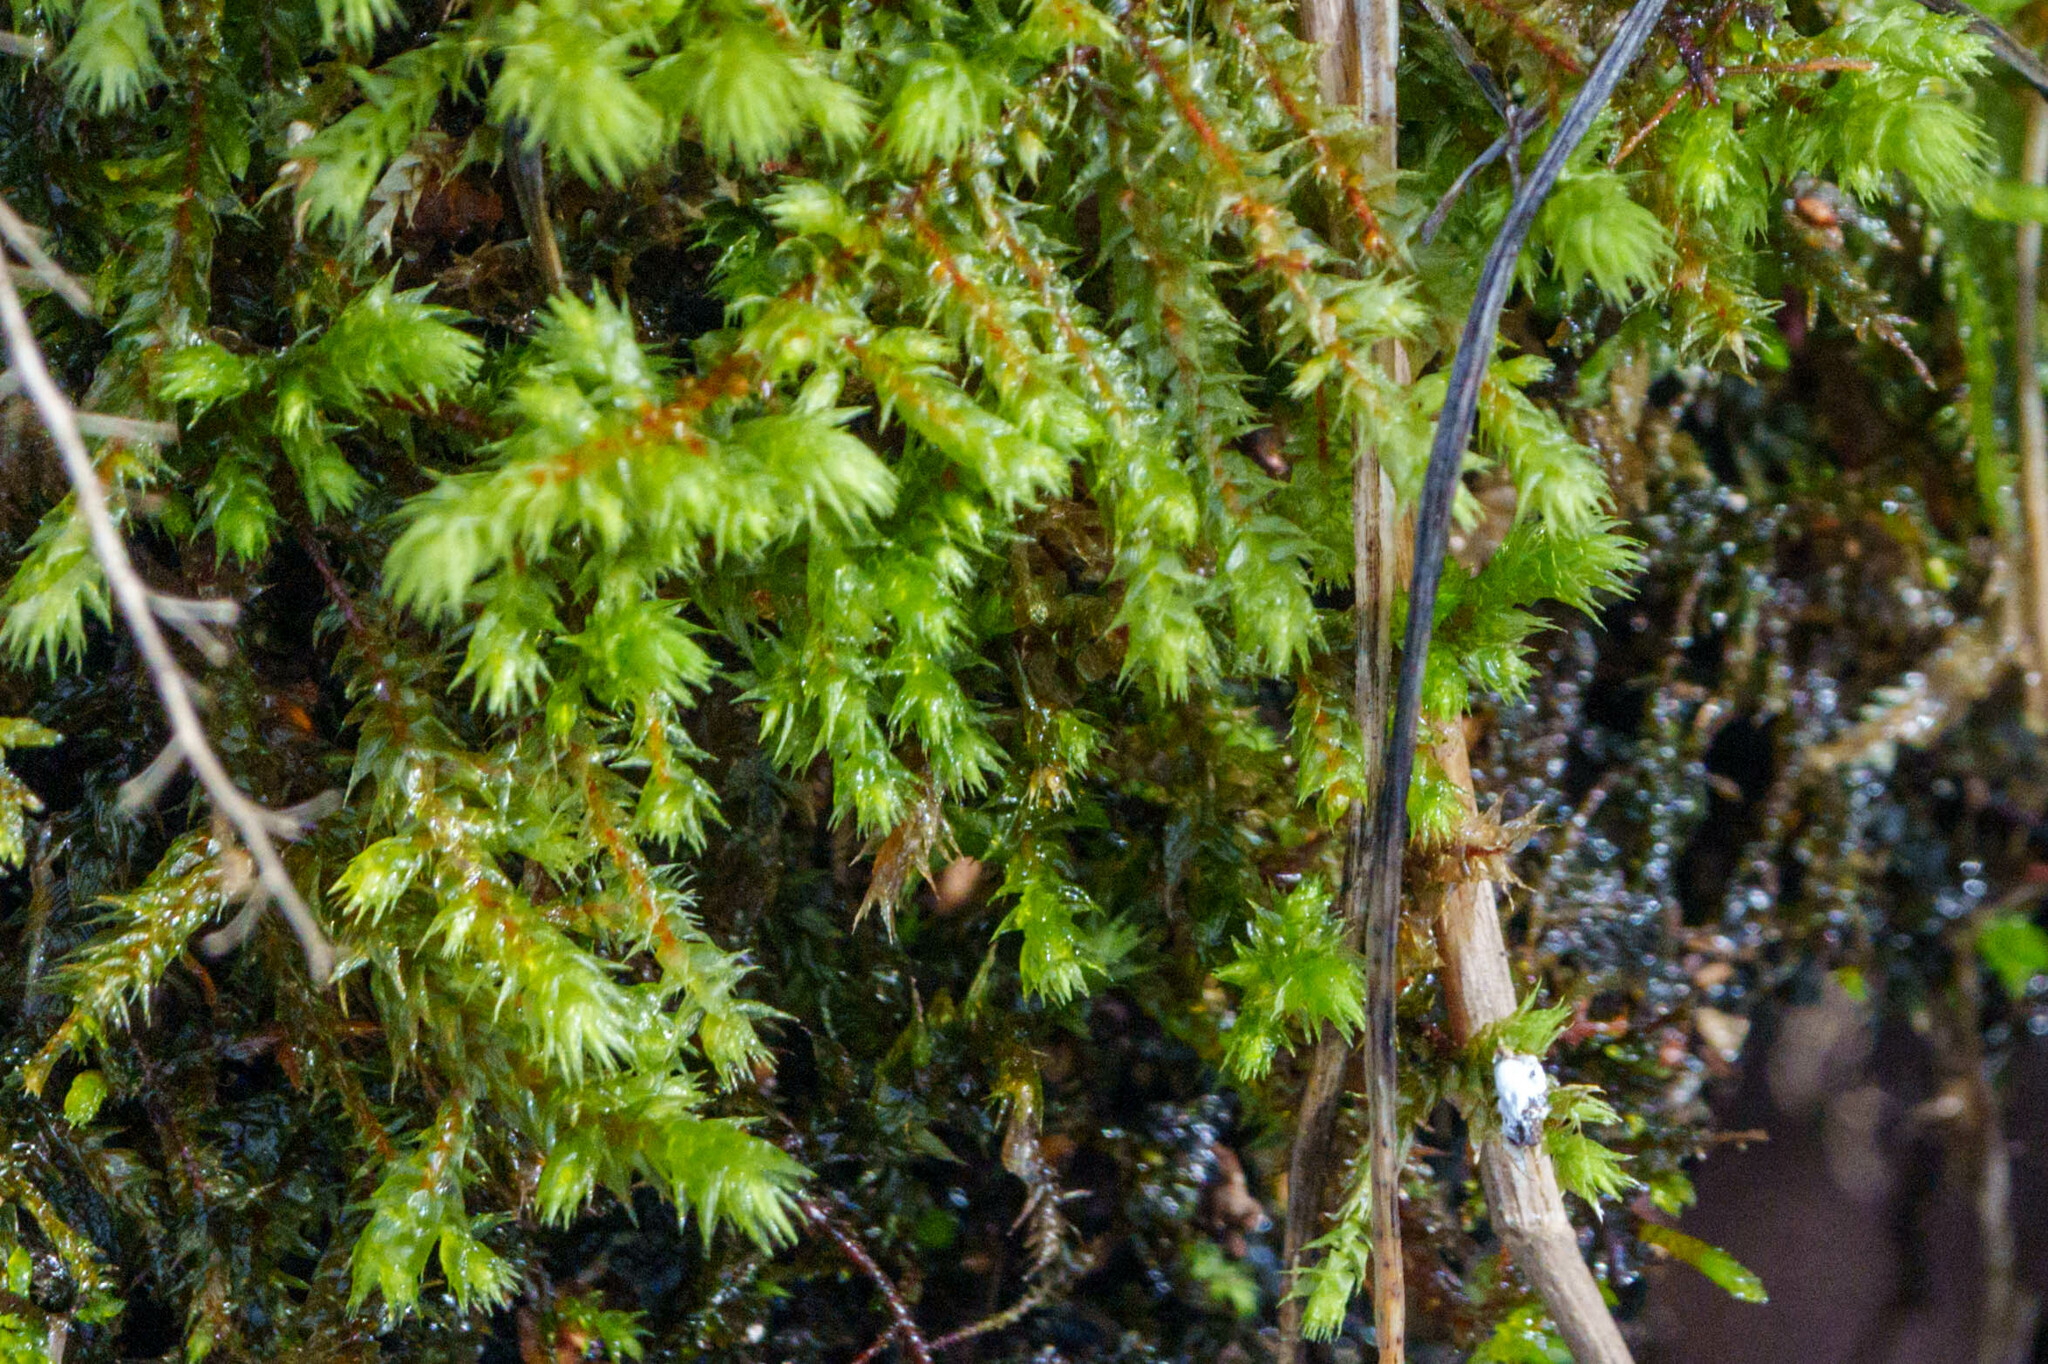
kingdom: Plantae
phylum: Bryophyta
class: Bryopsida
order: Hypnales
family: Hylocomiaceae
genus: Hylocomiadelphus
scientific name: Hylocomiadelphus triquetrus
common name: Rough goose neck moss
